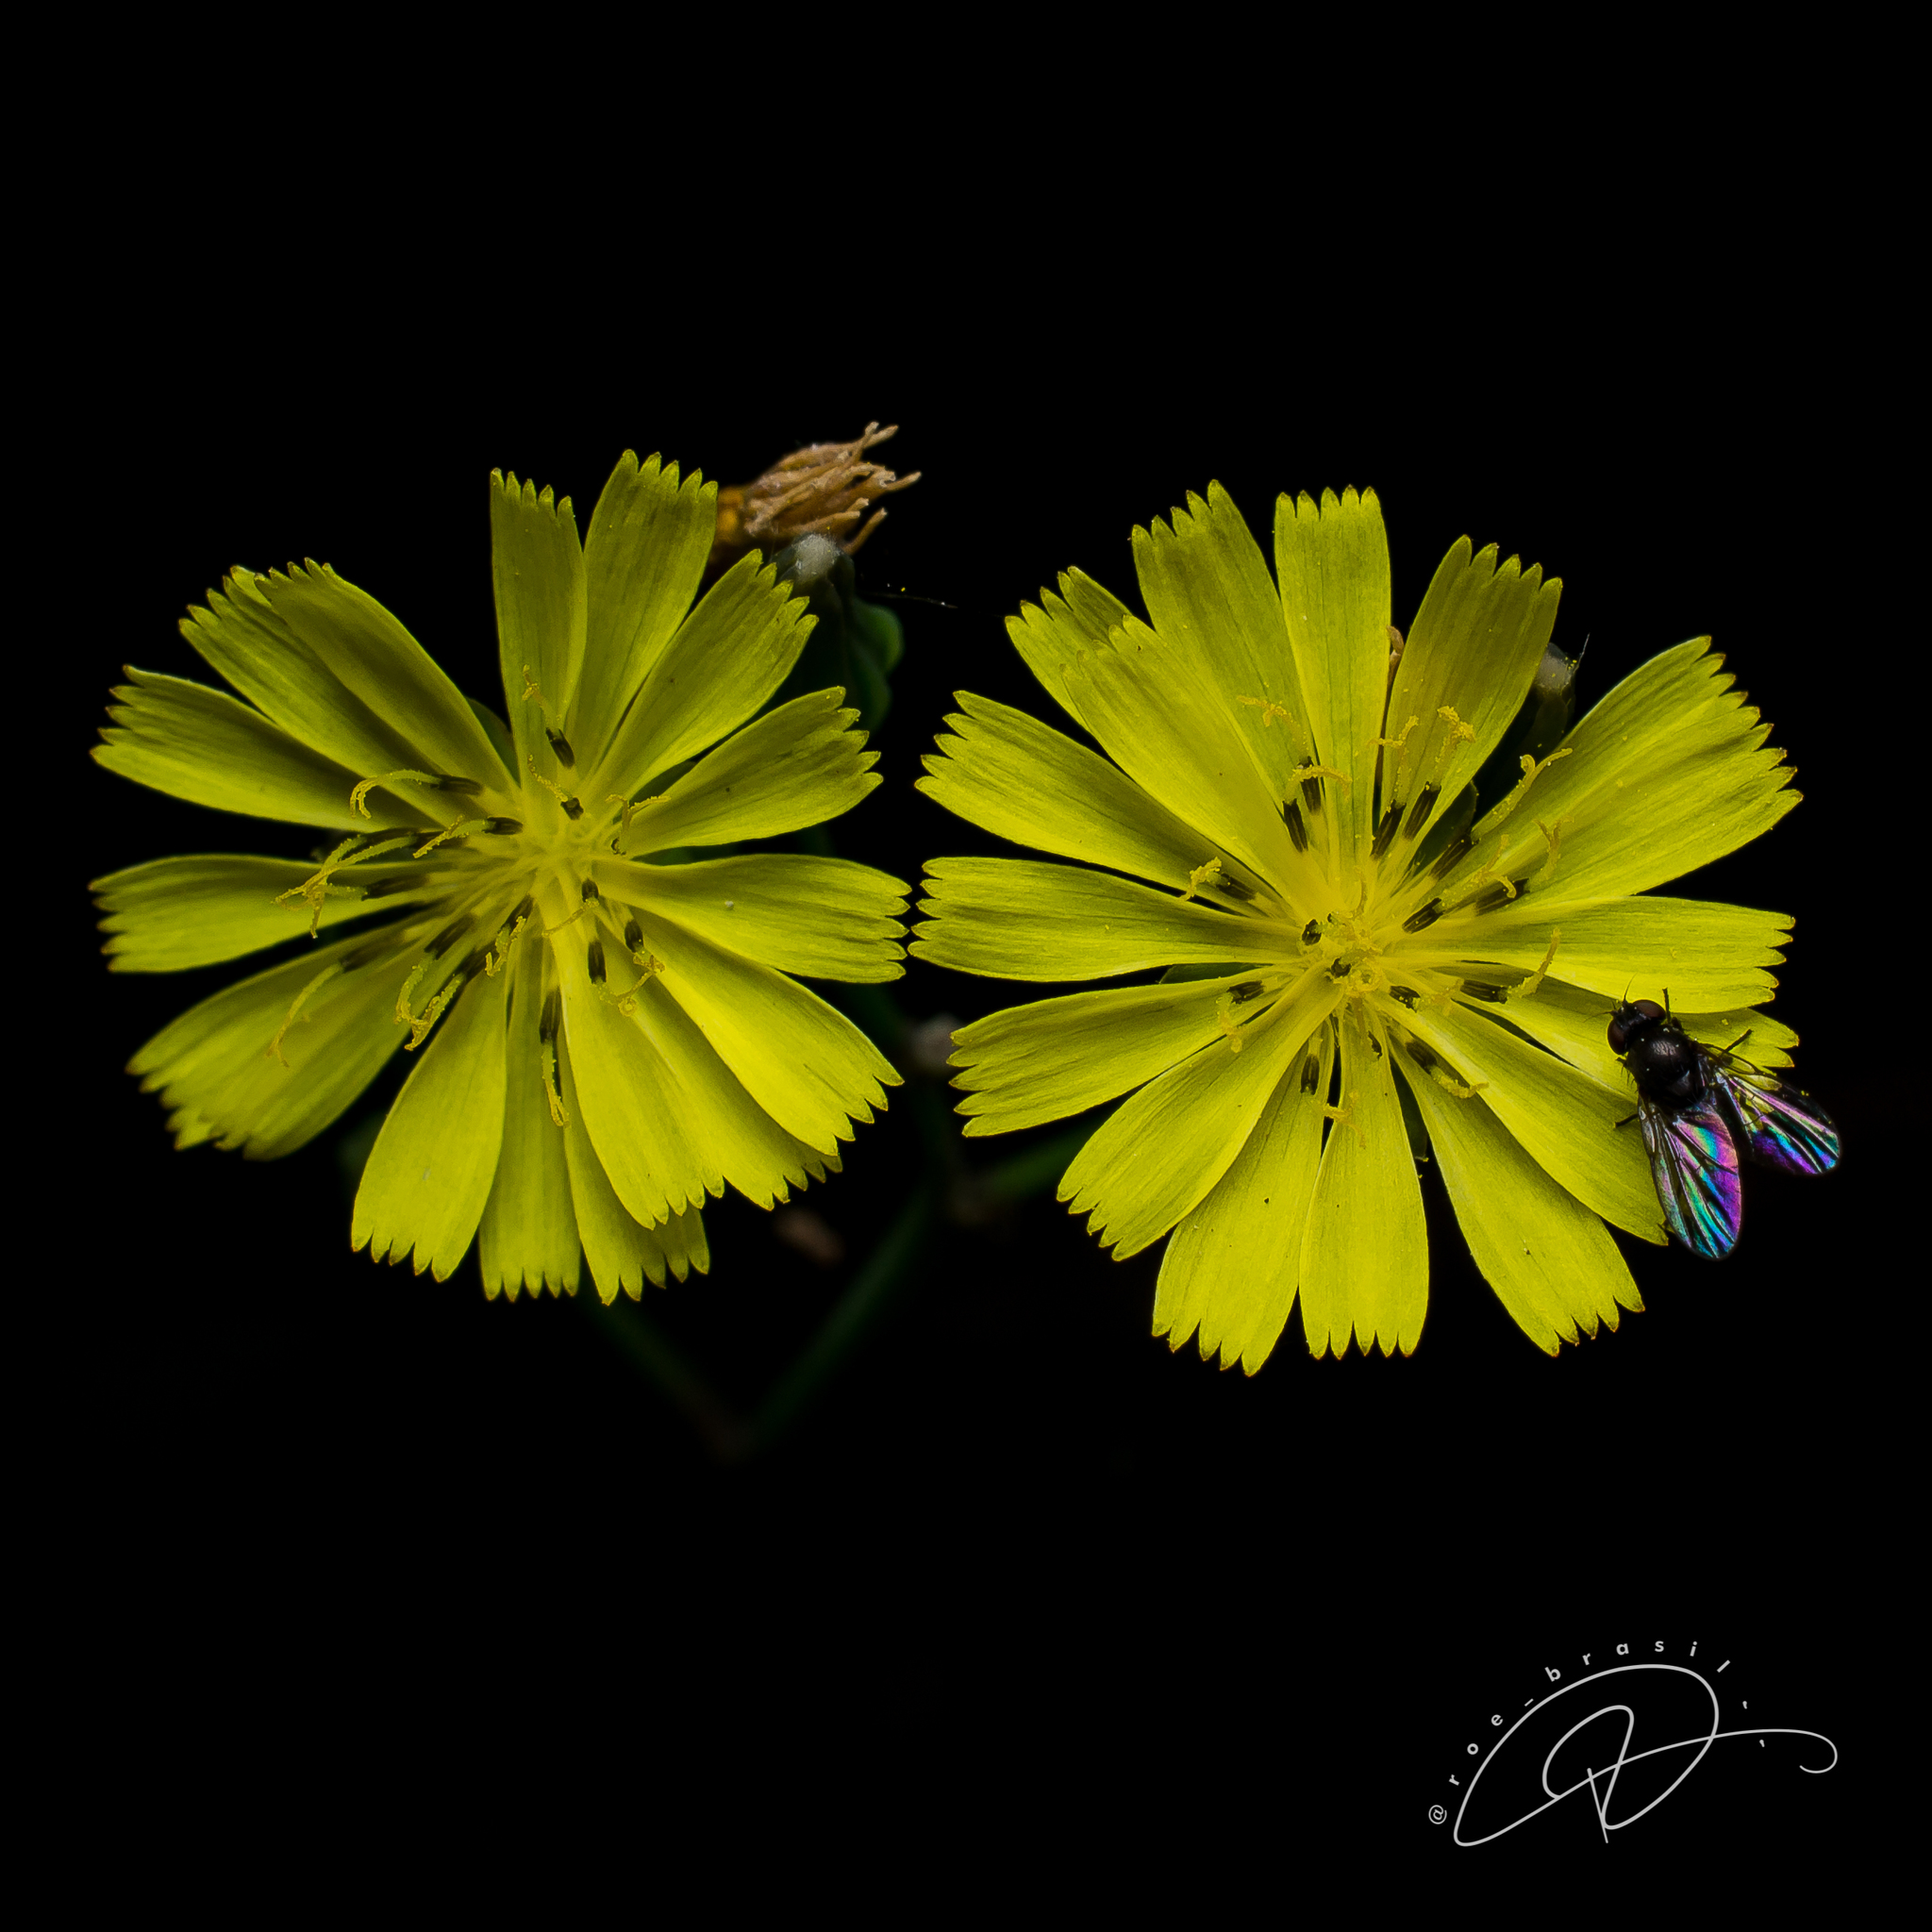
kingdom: Plantae
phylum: Tracheophyta
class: Magnoliopsida
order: Asterales
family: Asteraceae
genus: Youngia
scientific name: Youngia japonica
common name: Oriental false hawksbeard
